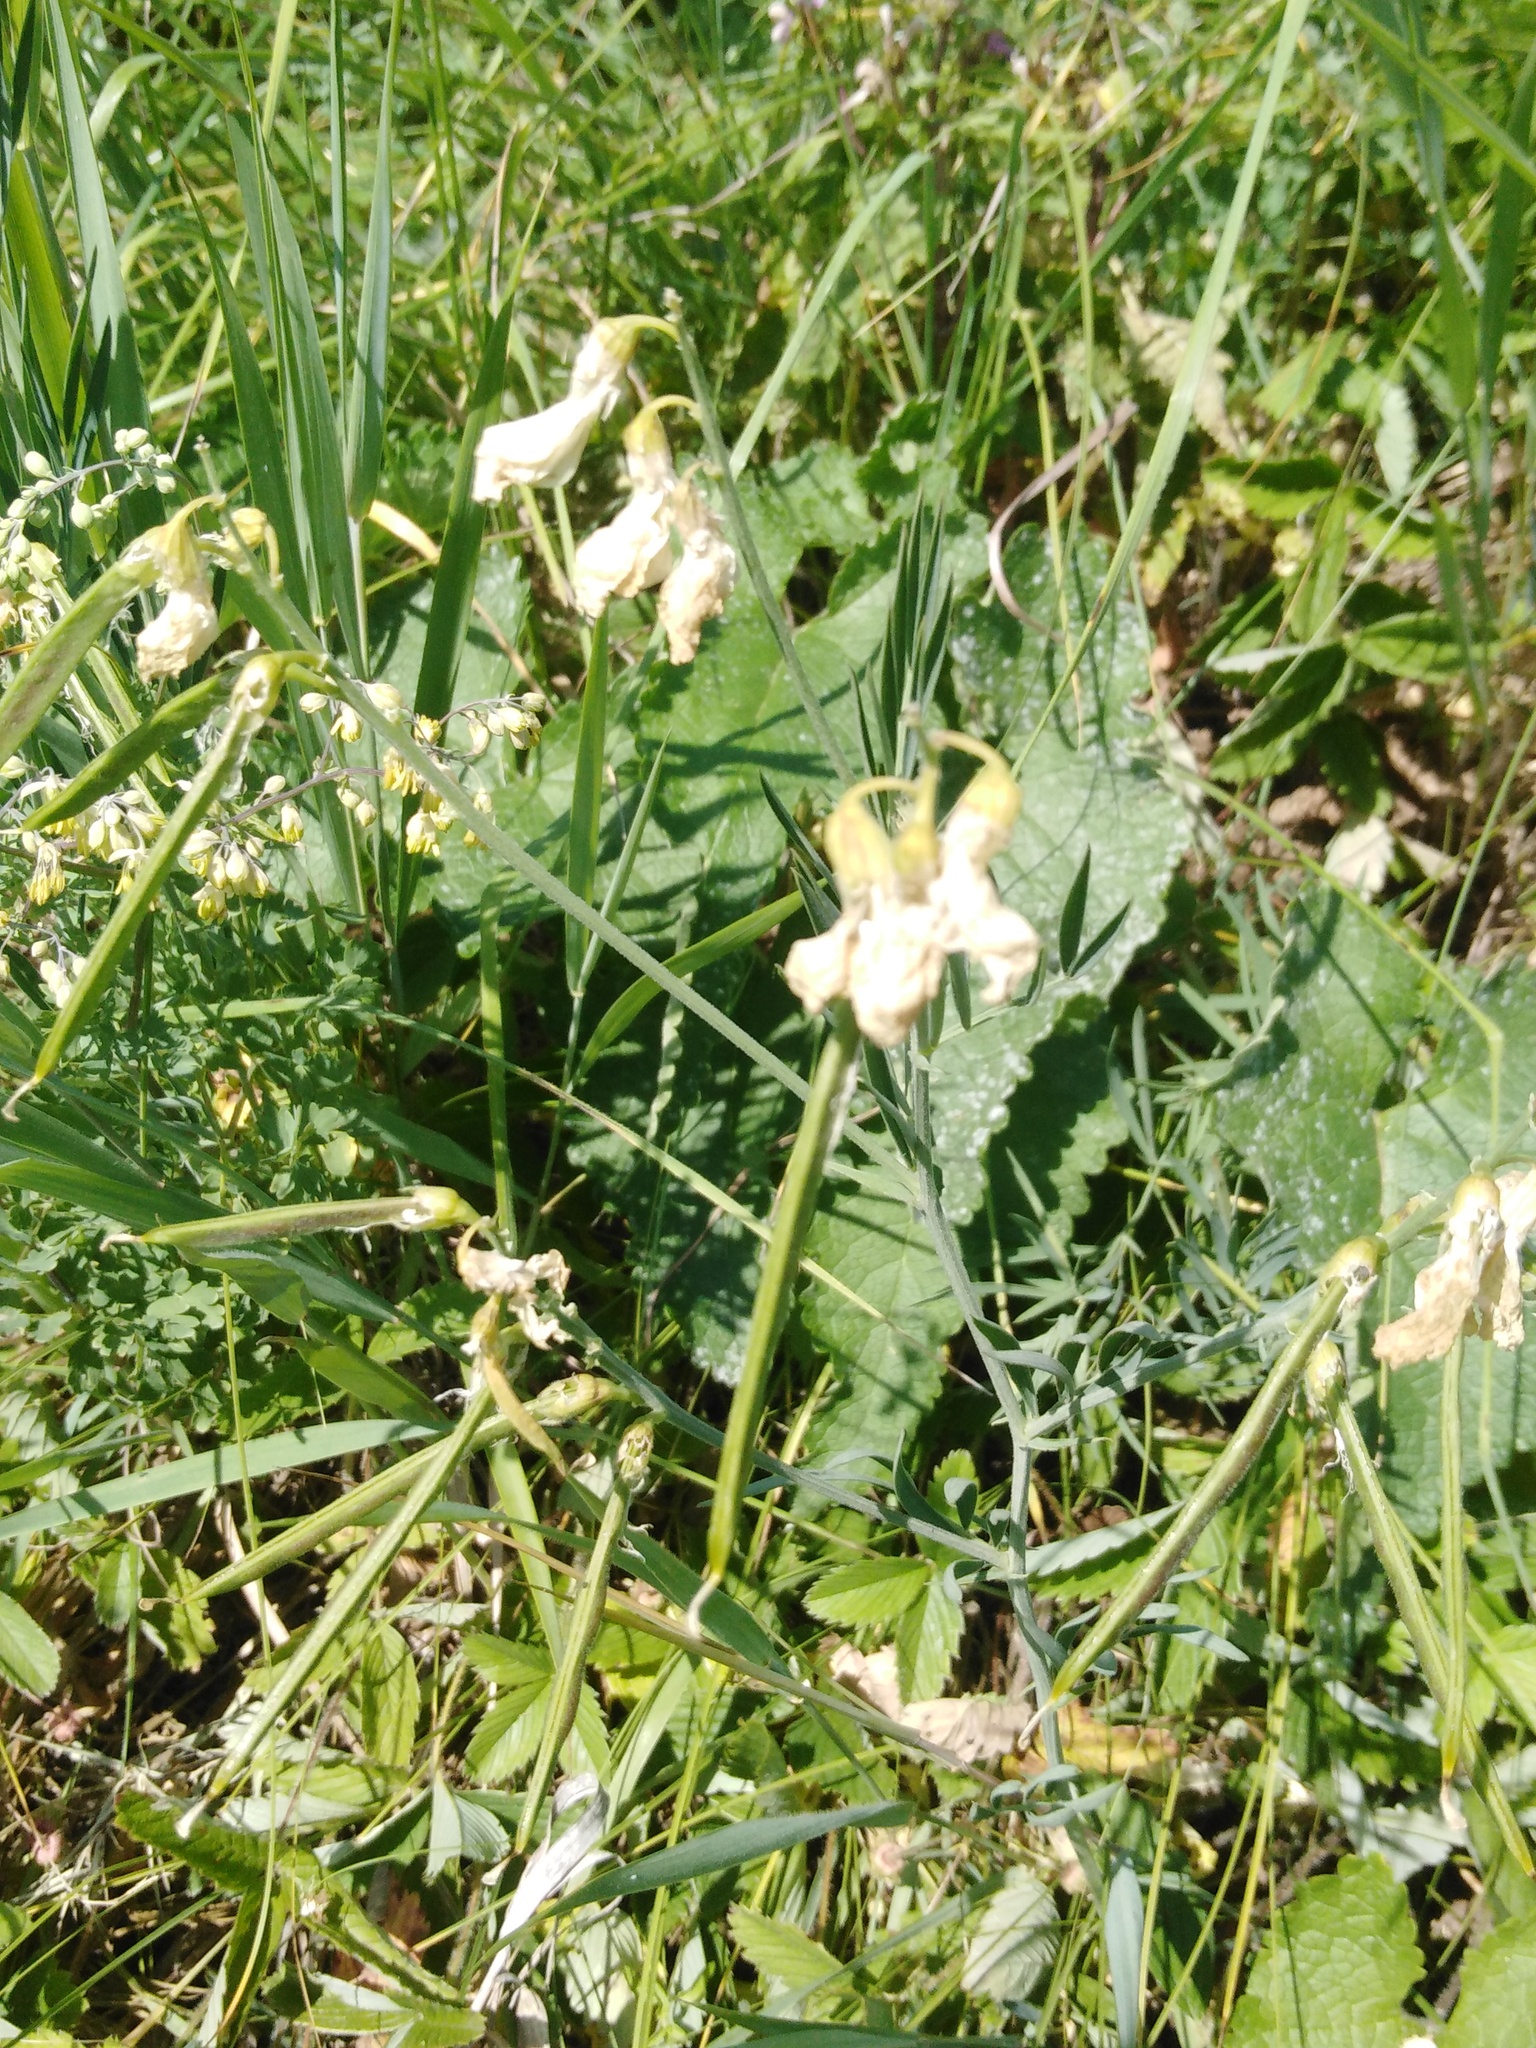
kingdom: Plantae
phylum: Tracheophyta
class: Magnoliopsida
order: Fabales
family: Fabaceae
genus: Lathyrus
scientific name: Lathyrus pallescens
